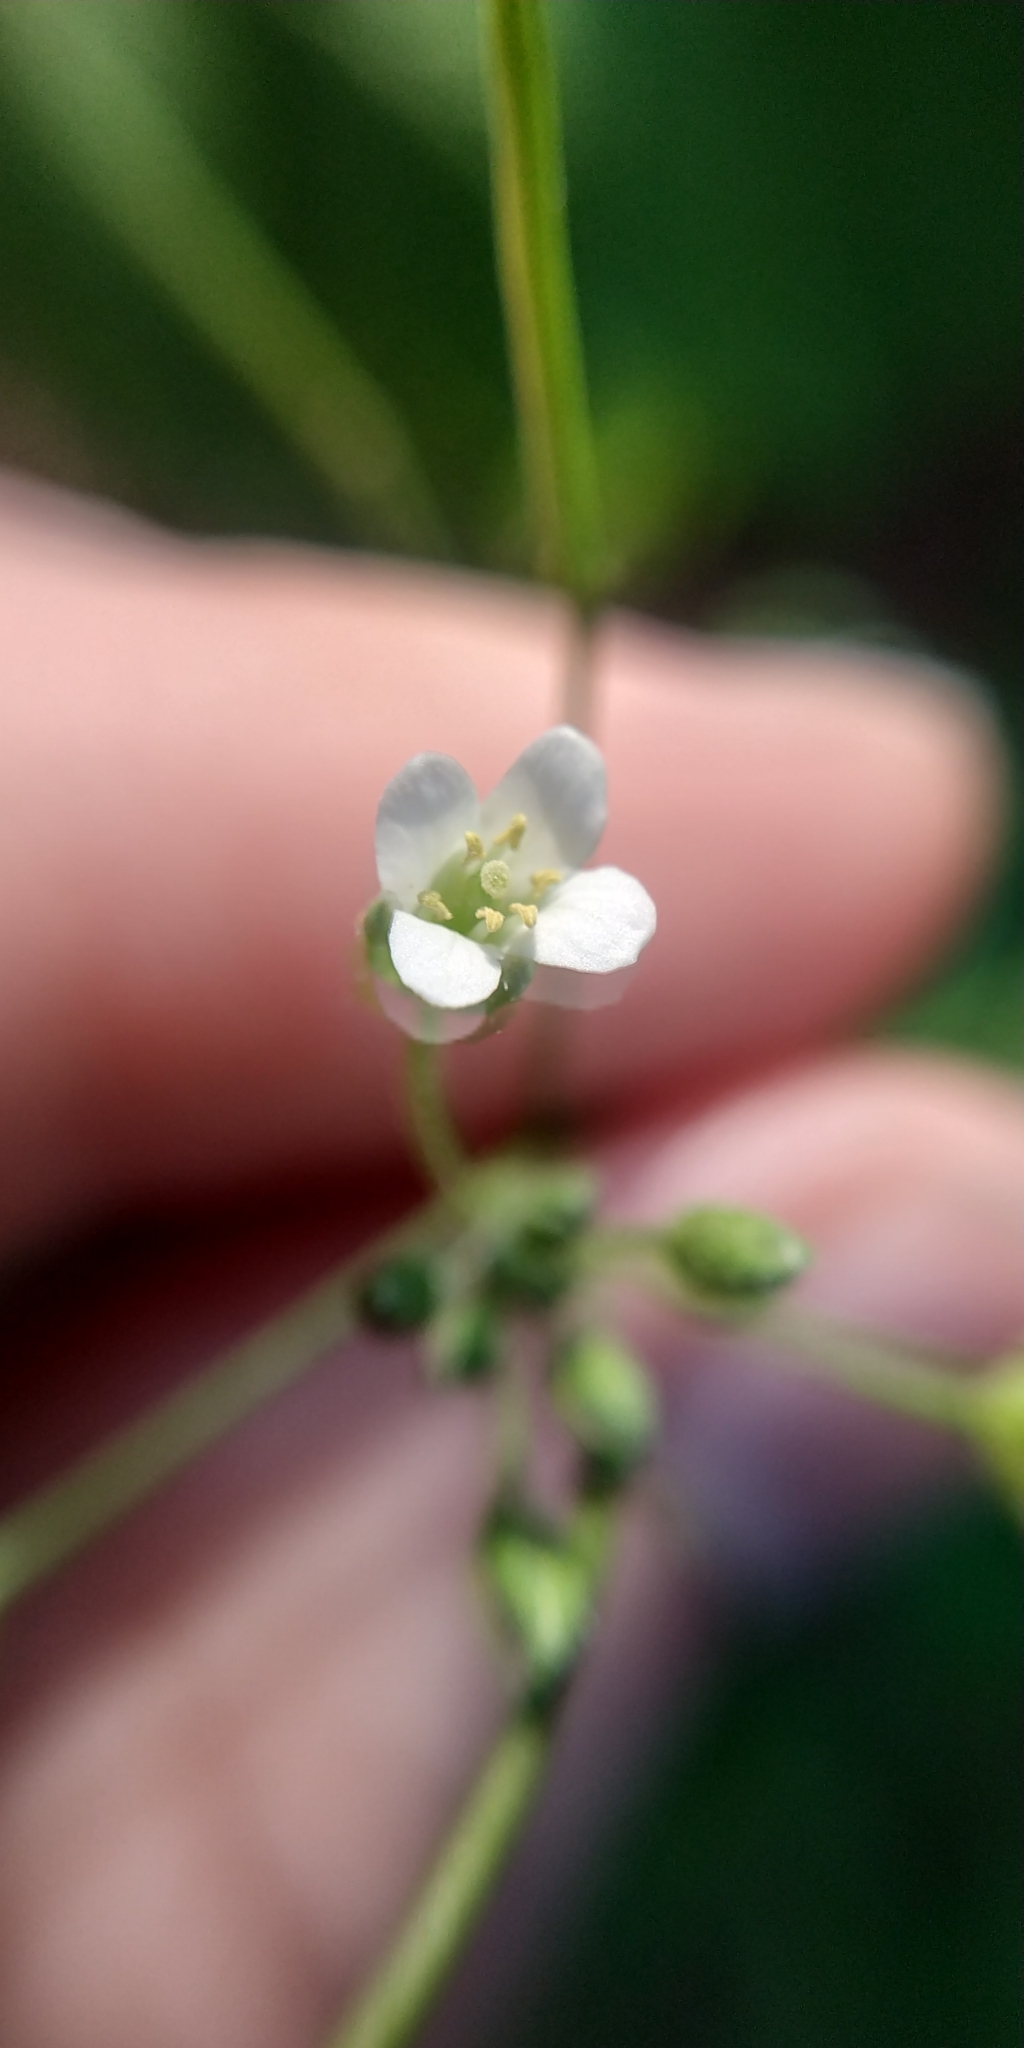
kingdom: Plantae
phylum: Tracheophyta
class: Magnoliopsida
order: Brassicales
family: Brassicaceae
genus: Catolobus
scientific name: Catolobus pendulus
